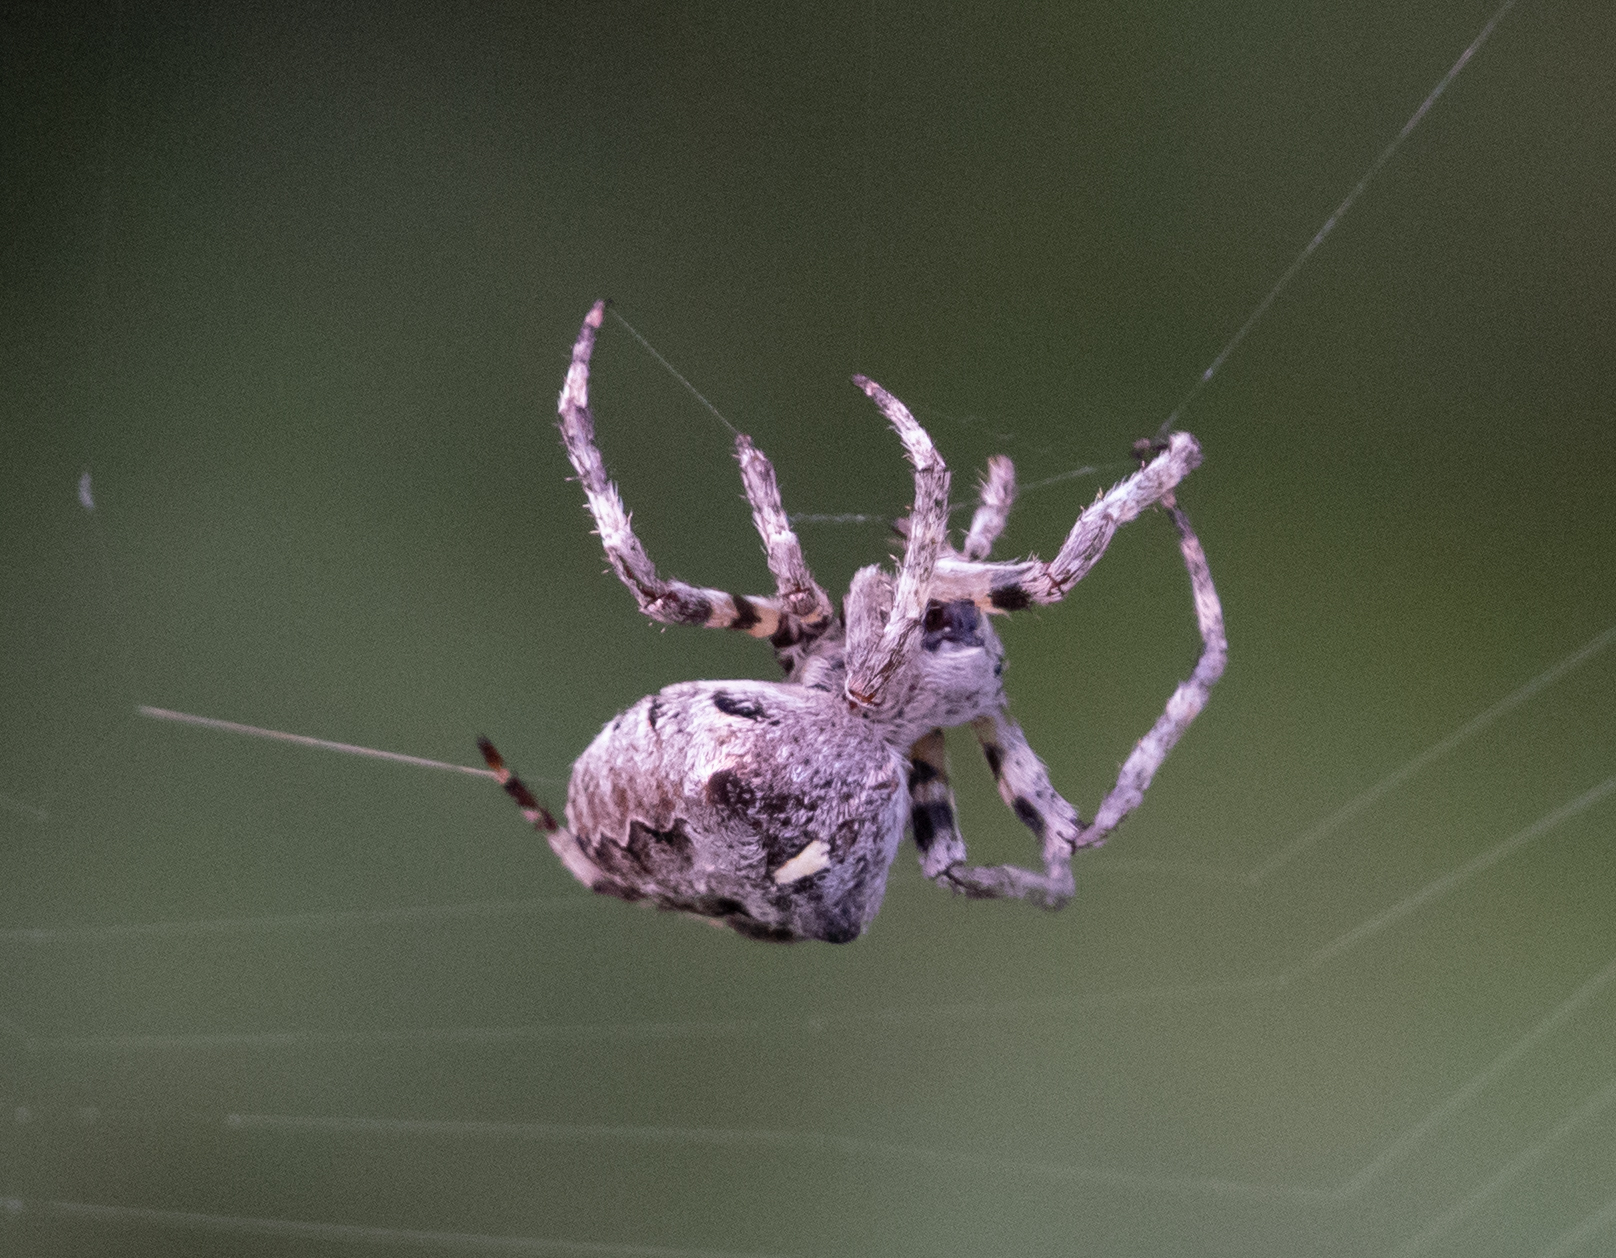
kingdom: Animalia
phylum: Arthropoda
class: Arachnida
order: Araneae
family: Araneidae
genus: Araneus
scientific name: Araneus angulatus
